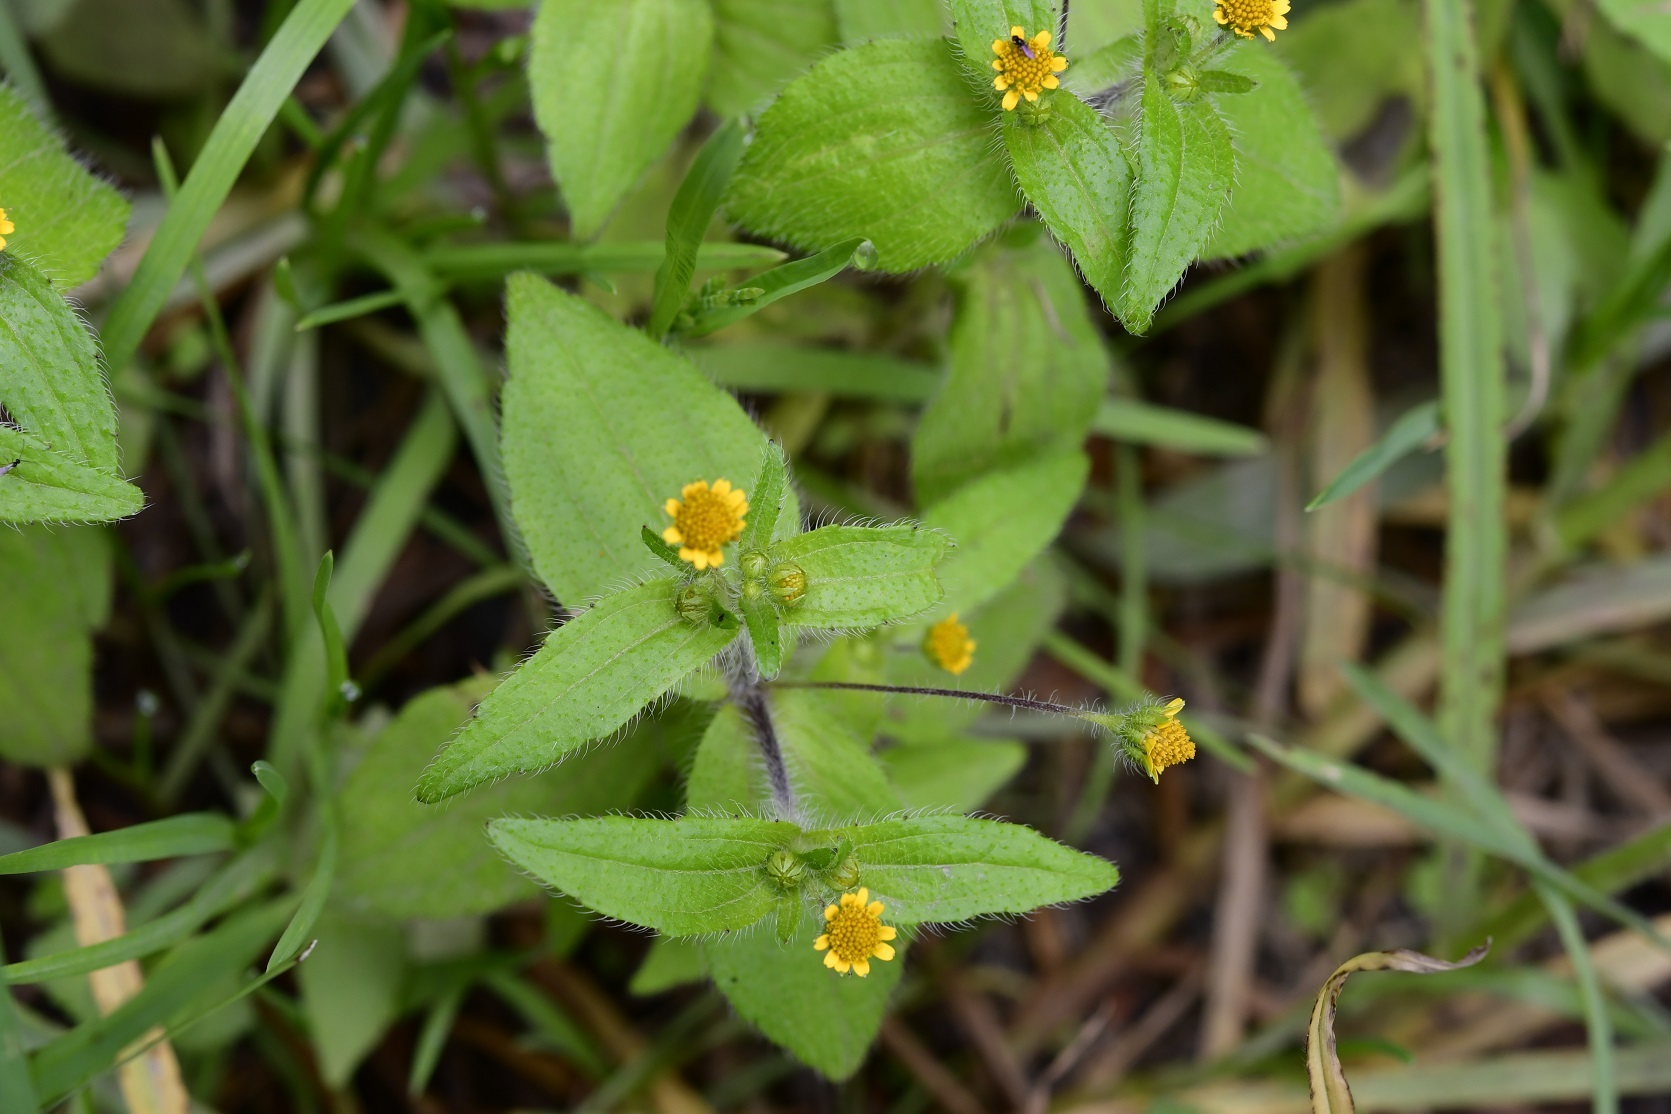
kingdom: Plantae
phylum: Tracheophyta
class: Magnoliopsida
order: Asterales
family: Asteraceae
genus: Jaegeria
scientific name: Jaegeria hirta
